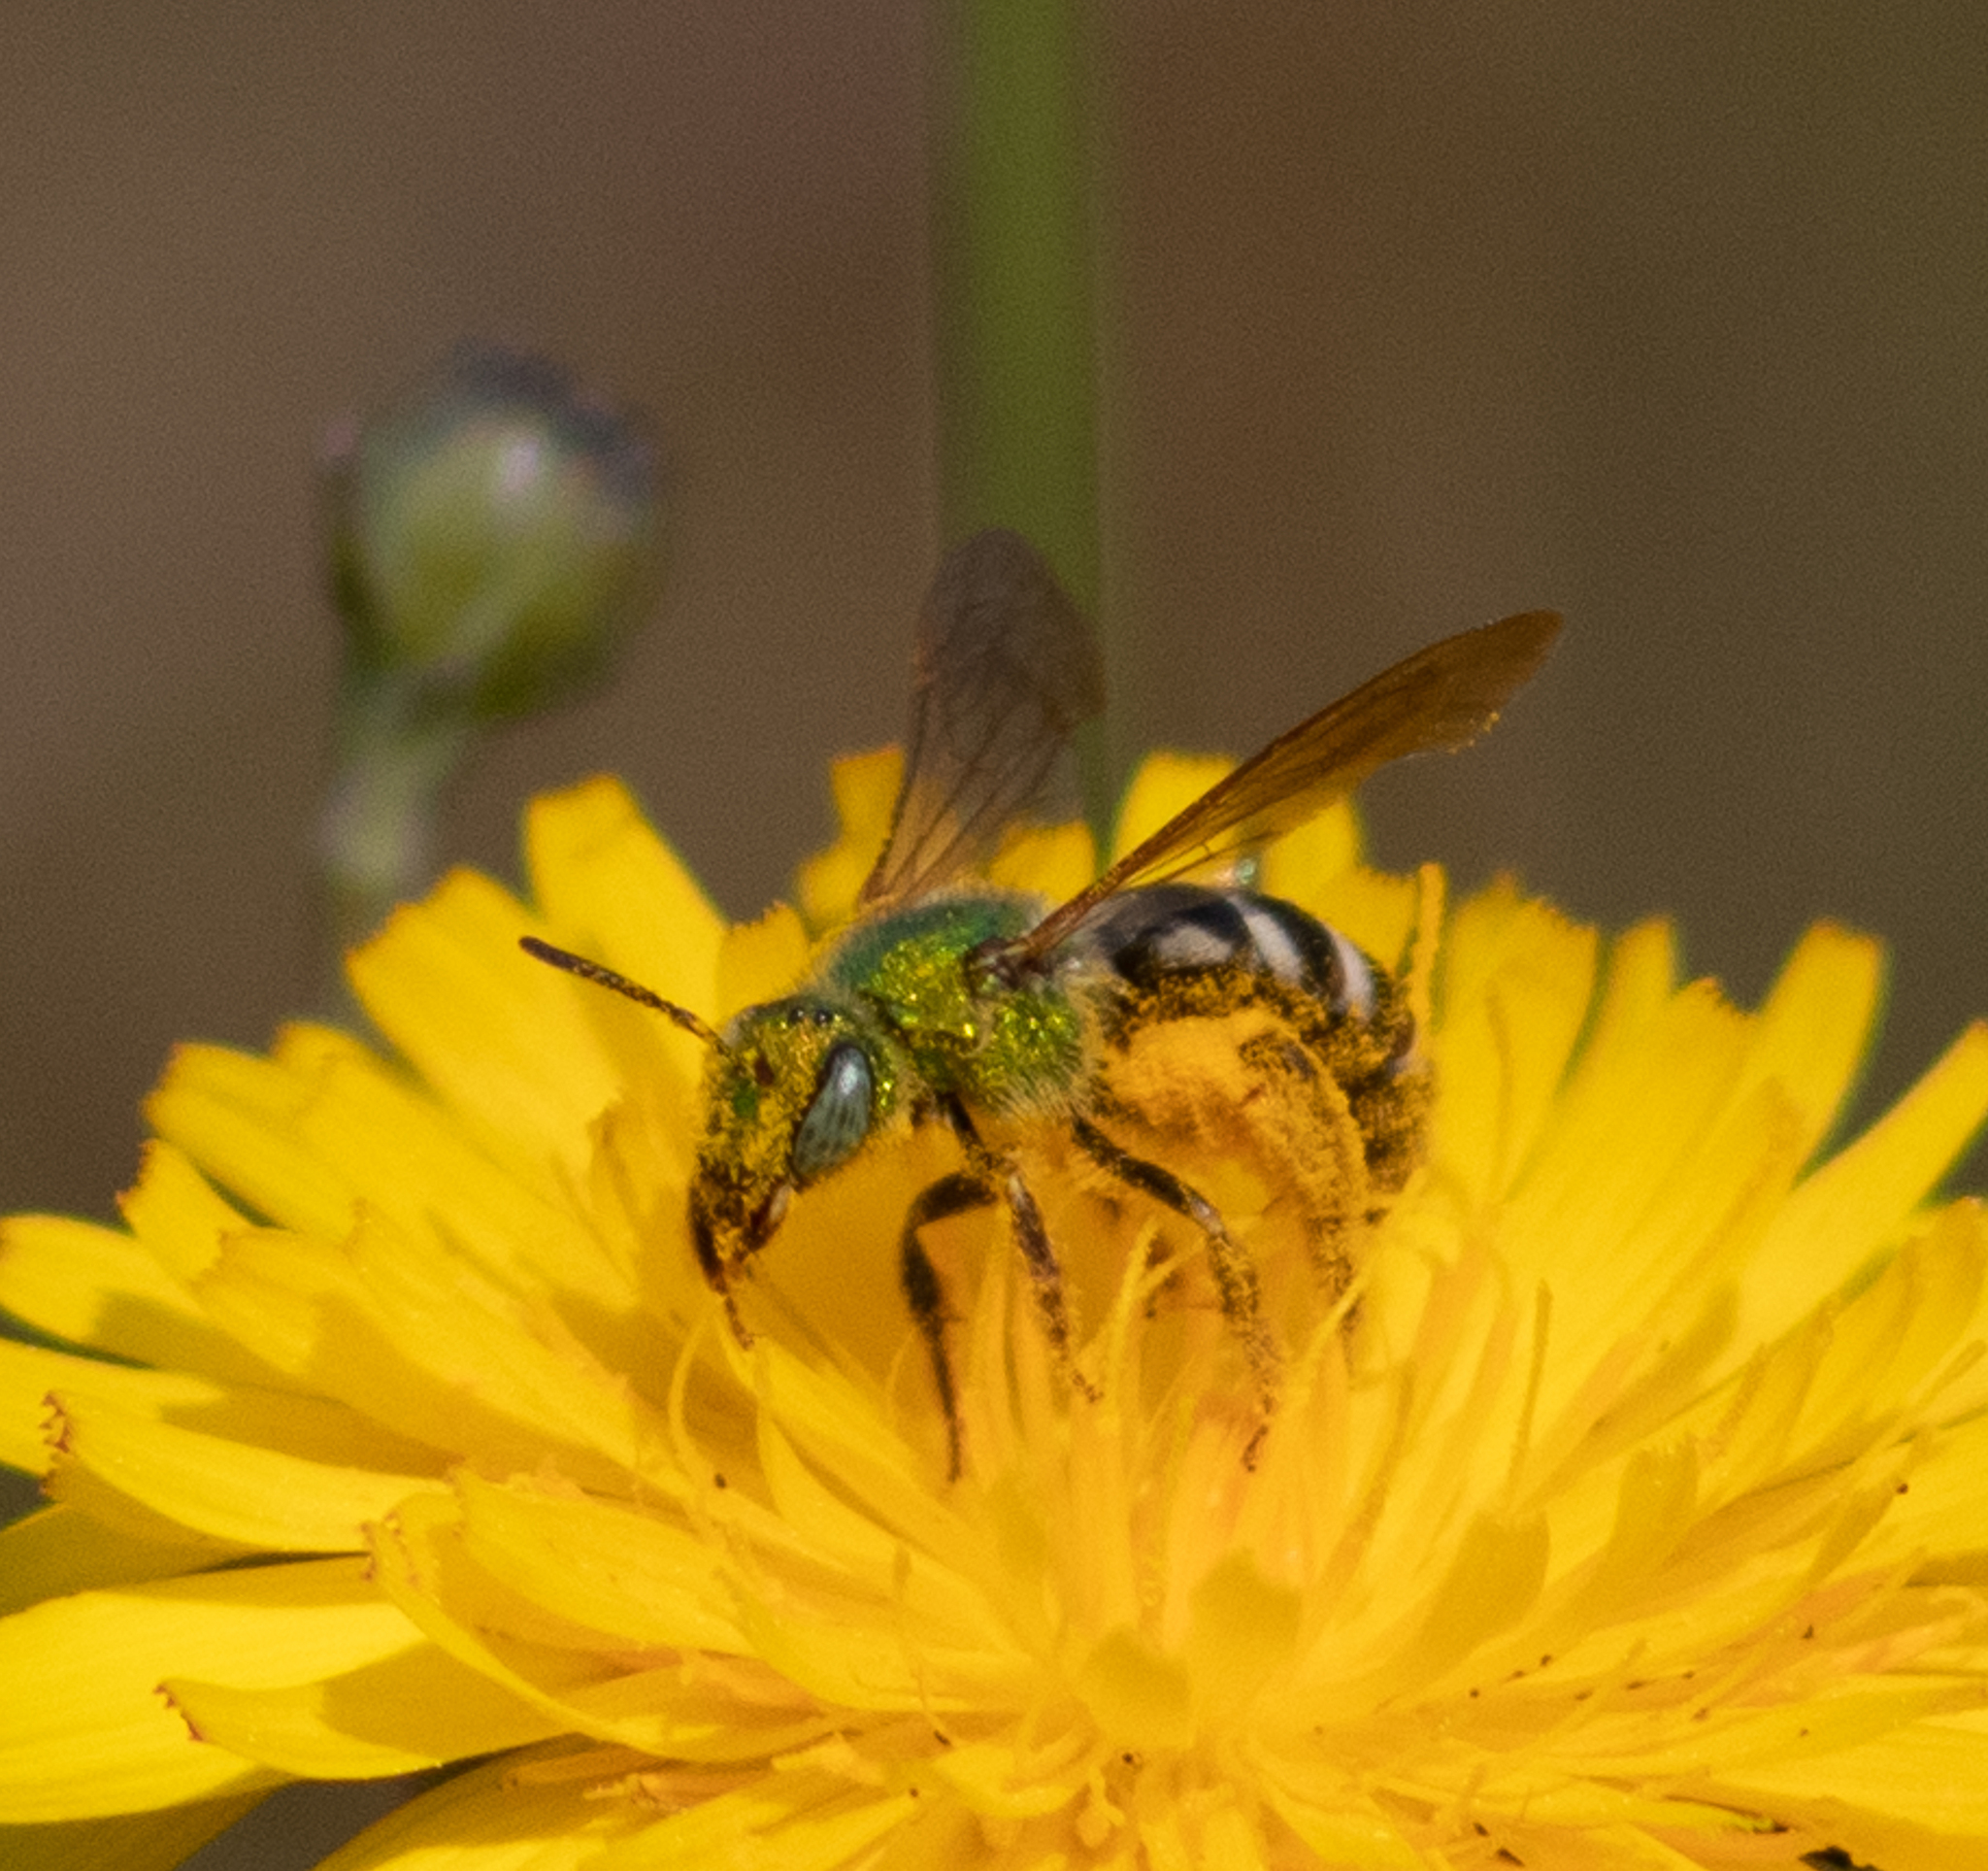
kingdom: Animalia
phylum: Arthropoda
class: Insecta
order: Hymenoptera
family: Halictidae
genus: Agapostemon
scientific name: Agapostemon virescens
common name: Bicolored striped sweat bee
